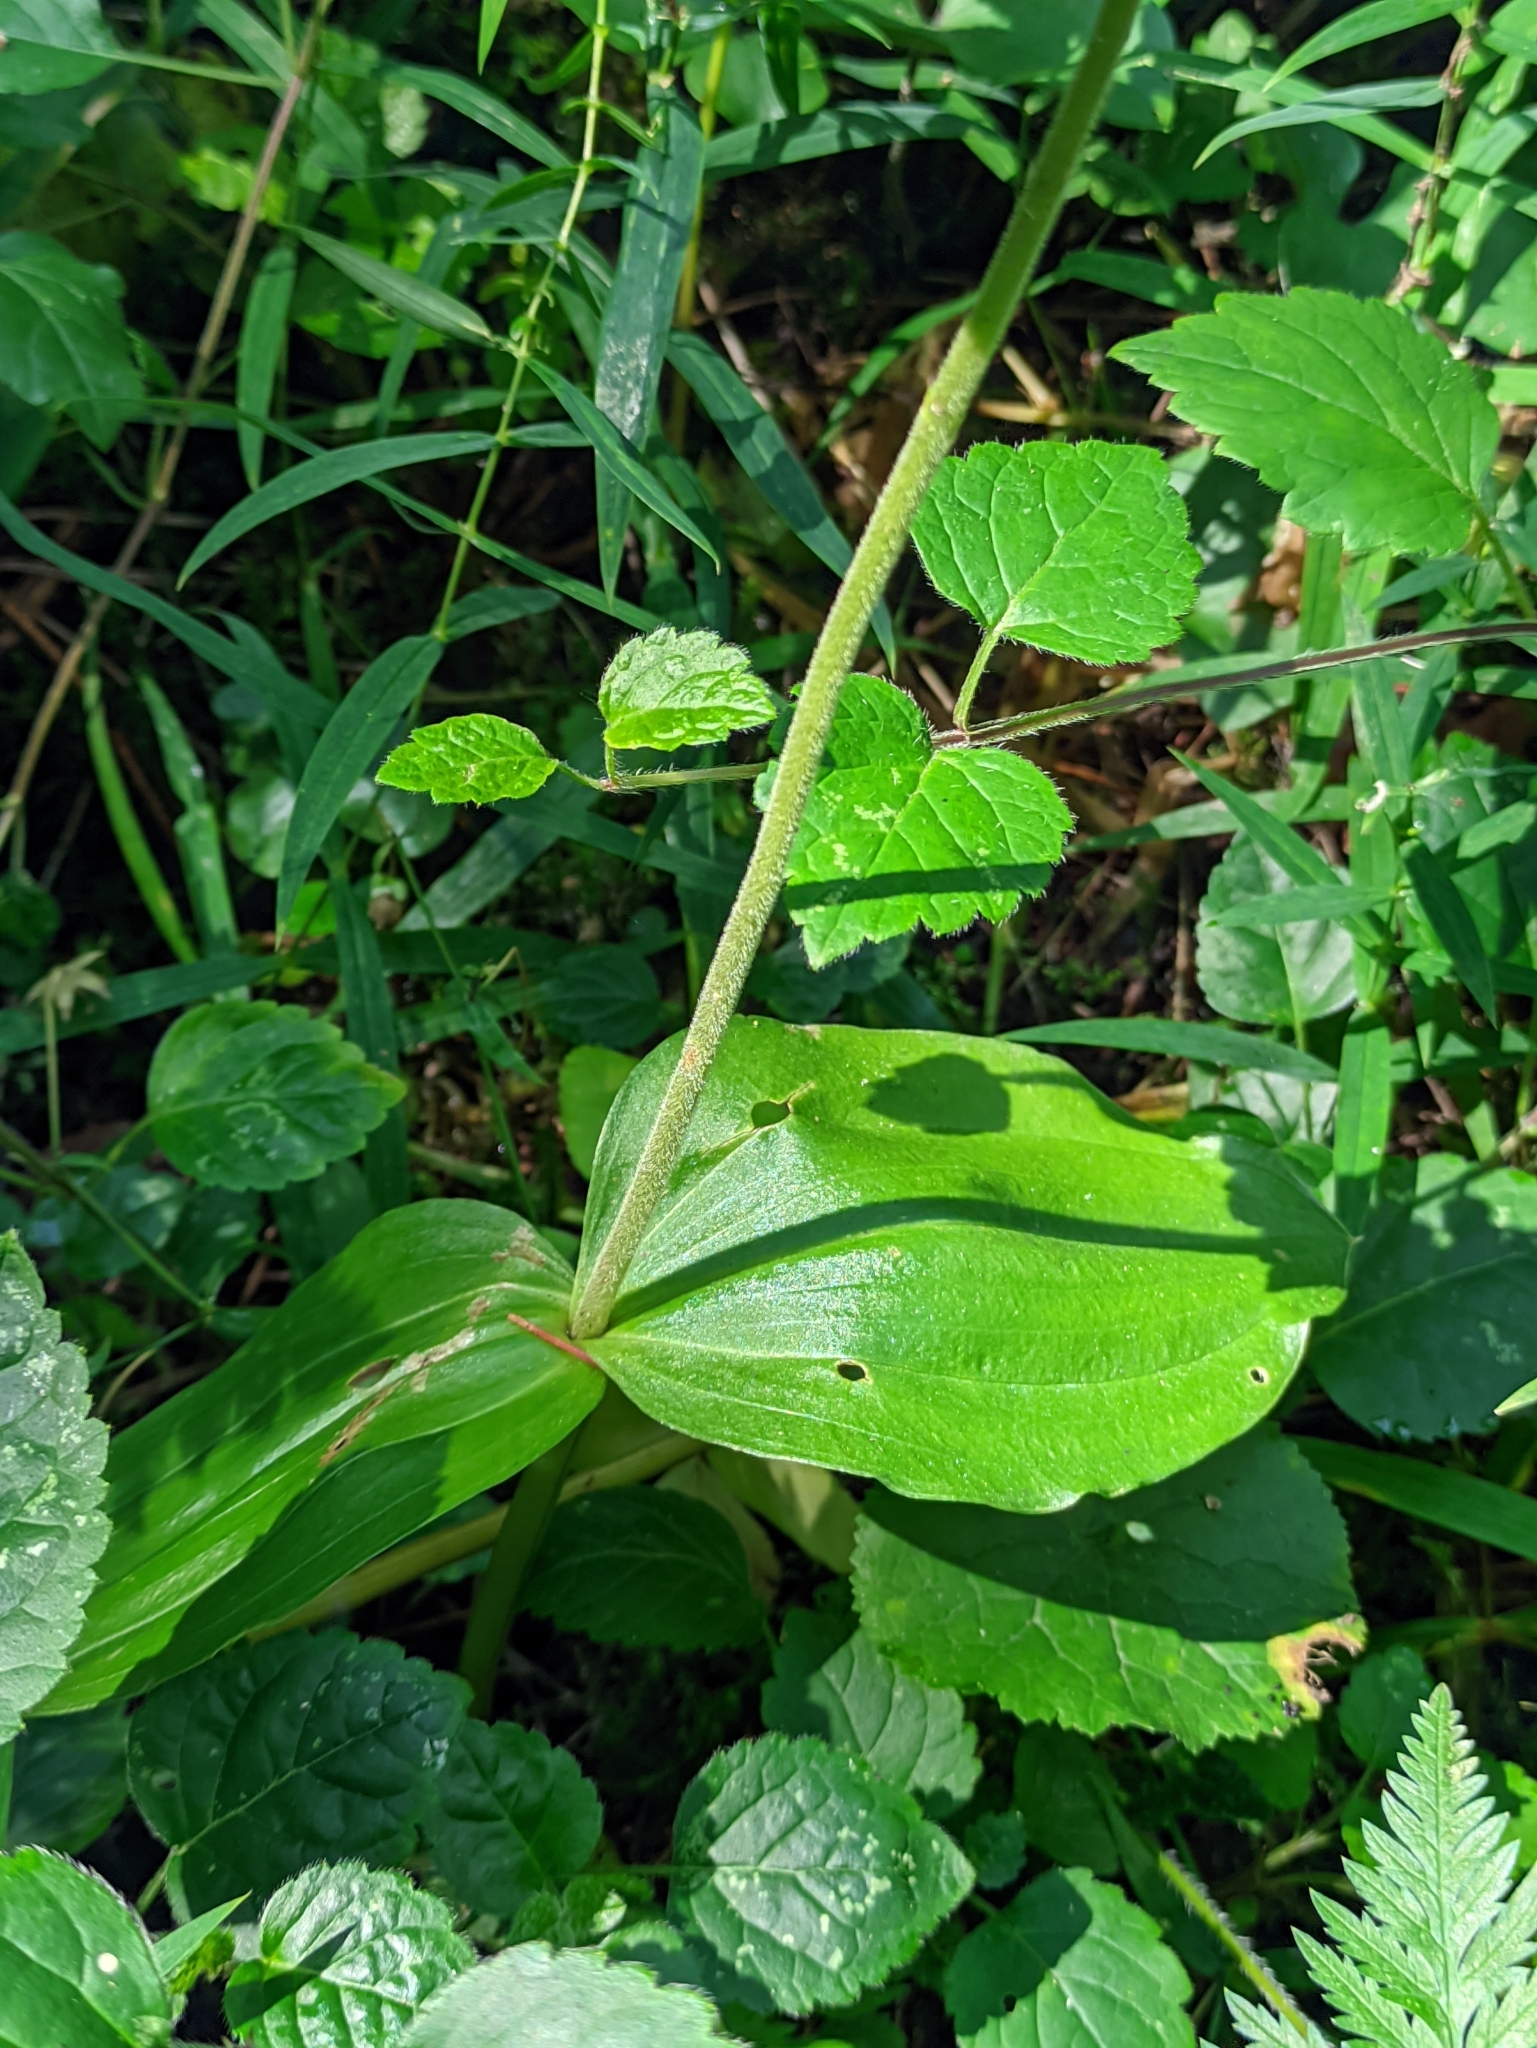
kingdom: Plantae
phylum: Tracheophyta
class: Liliopsida
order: Asparagales
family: Orchidaceae
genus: Neottia
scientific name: Neottia ovata
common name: Common twayblade
